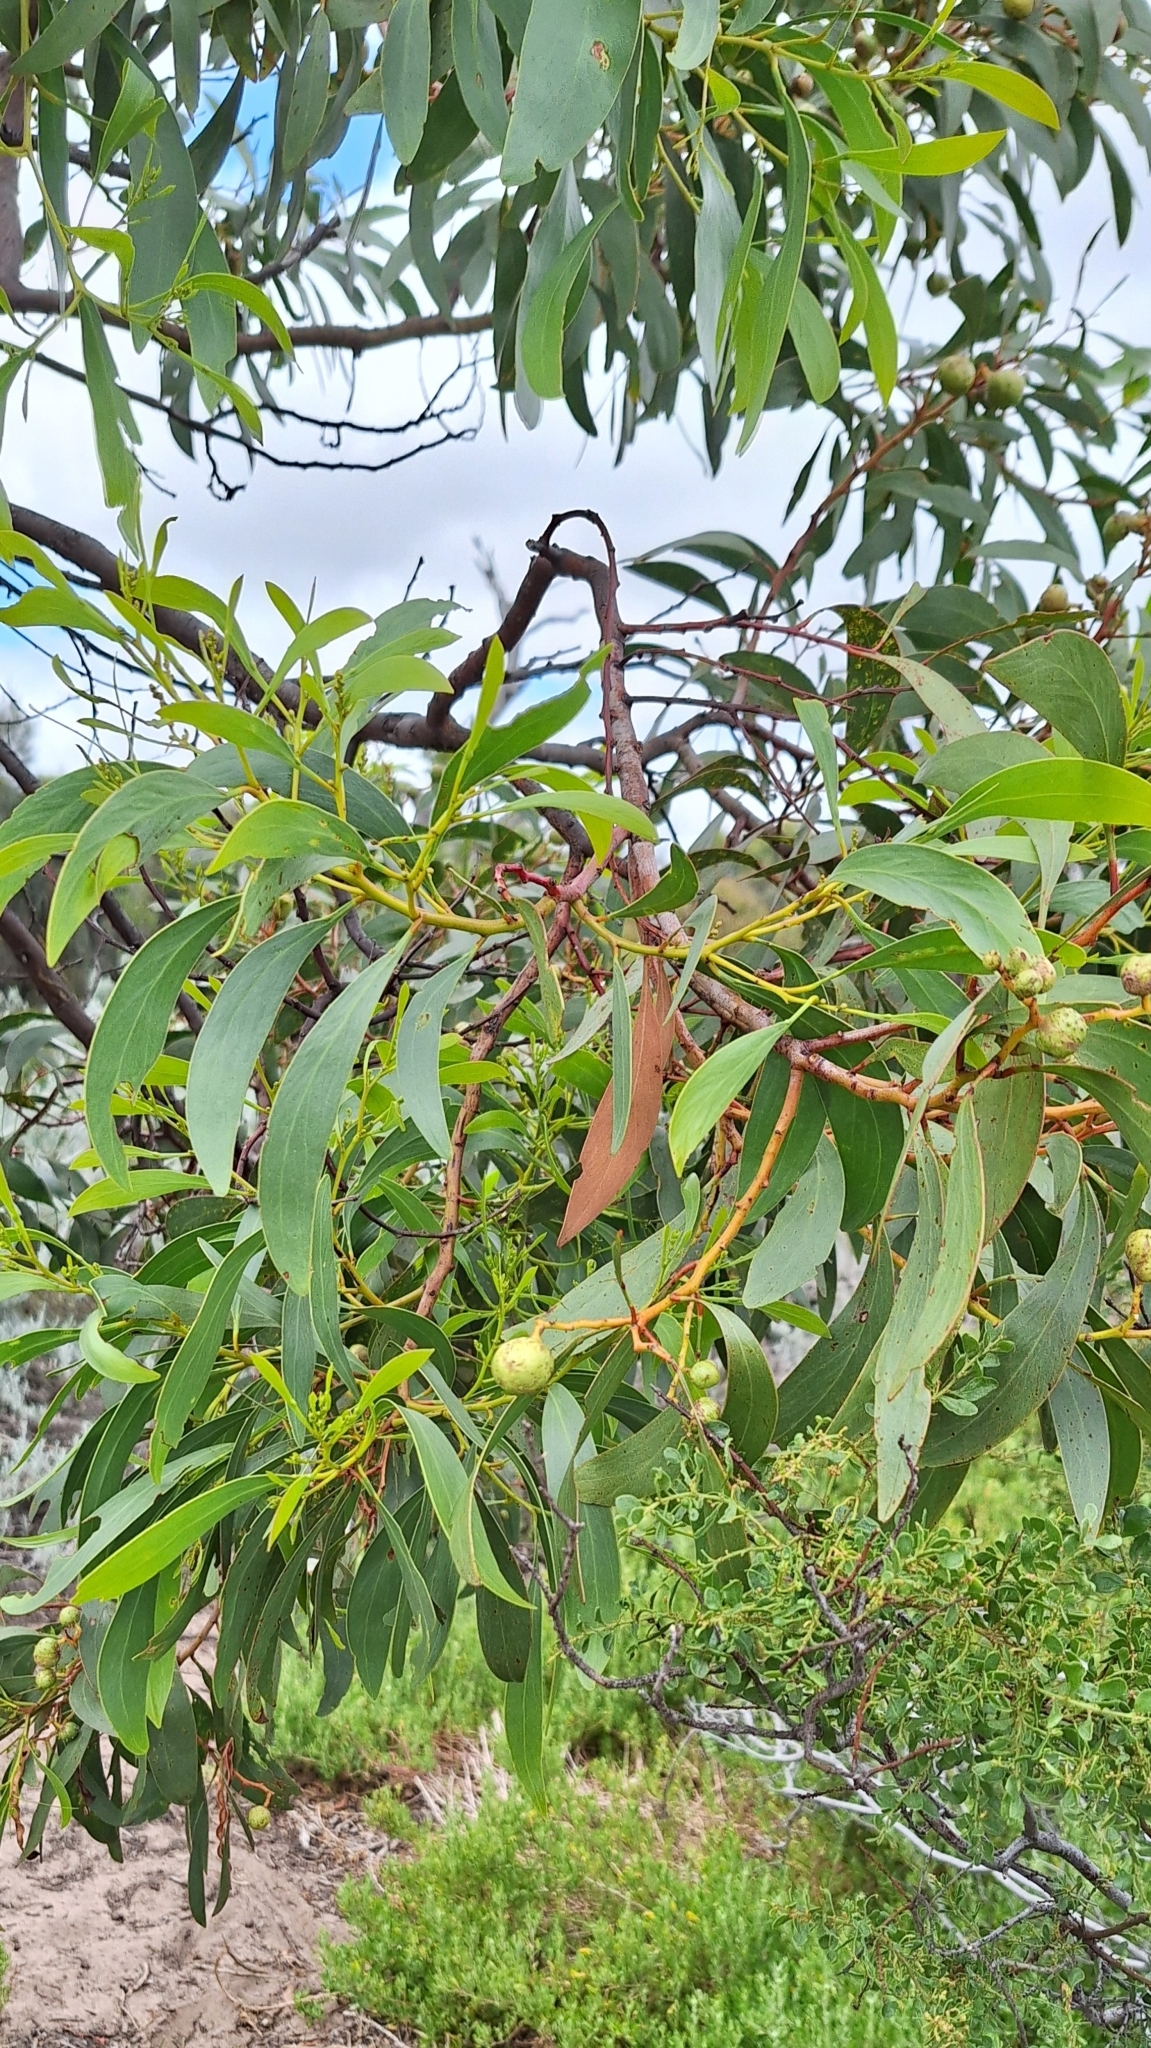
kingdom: Plantae
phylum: Tracheophyta
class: Magnoliopsida
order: Fabales
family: Fabaceae
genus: Acacia
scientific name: Acacia pycnantha
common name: Golden wattle
